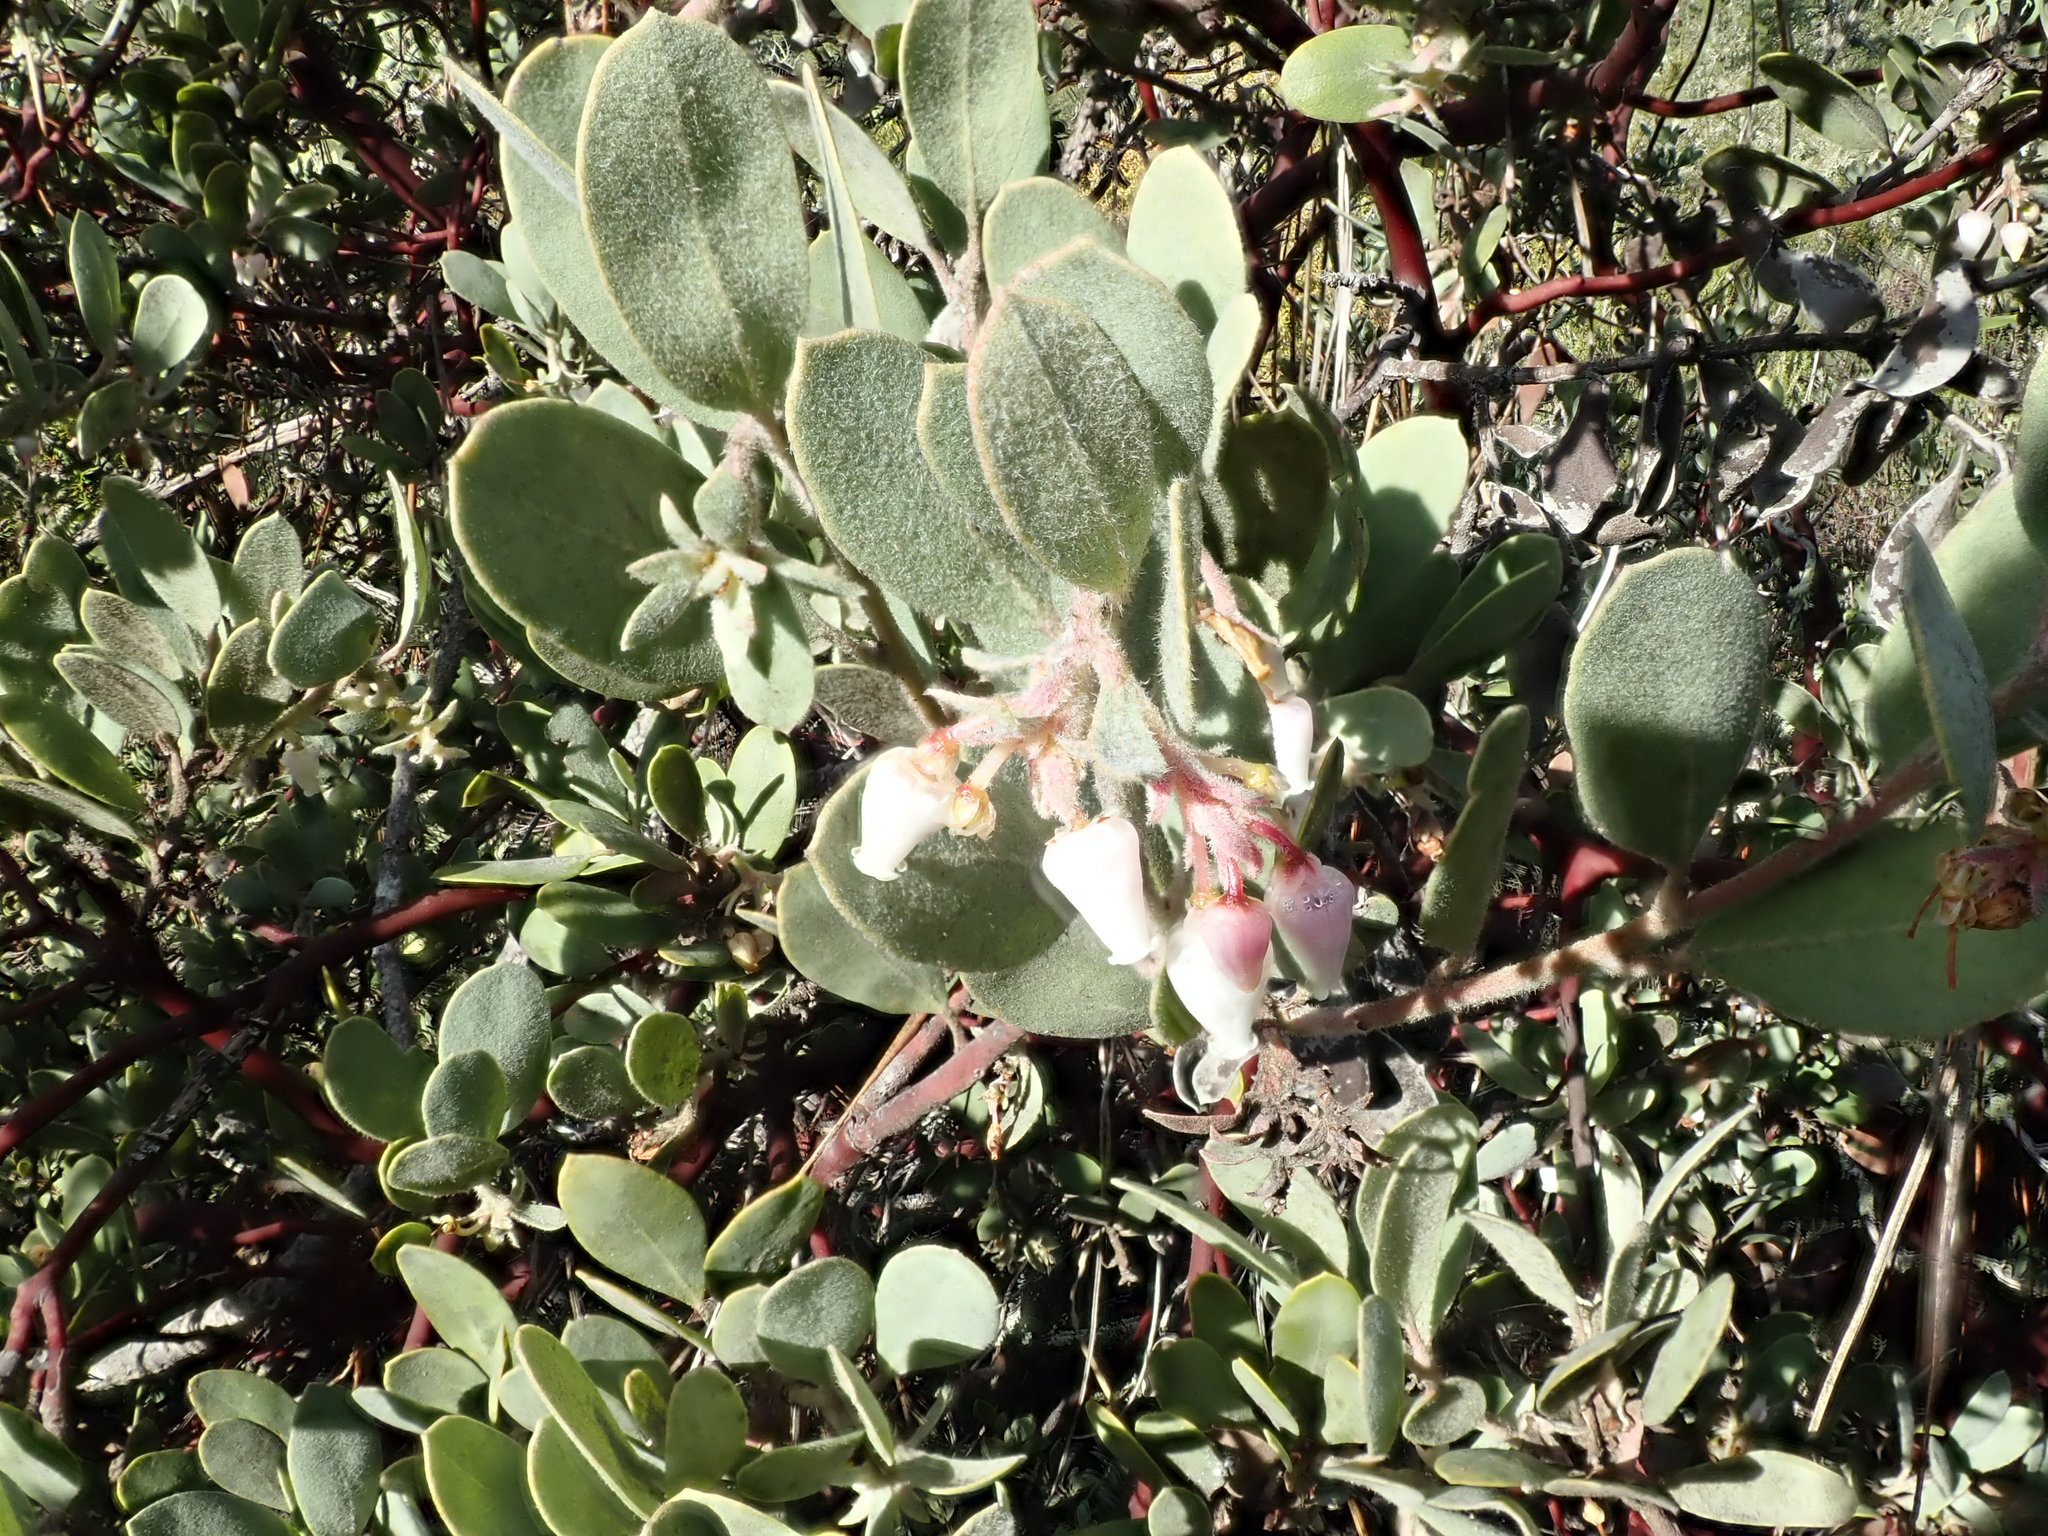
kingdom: Plantae
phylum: Tracheophyta
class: Magnoliopsida
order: Ericales
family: Ericaceae
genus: Arctostaphylos
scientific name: Arctostaphylos silvicola
